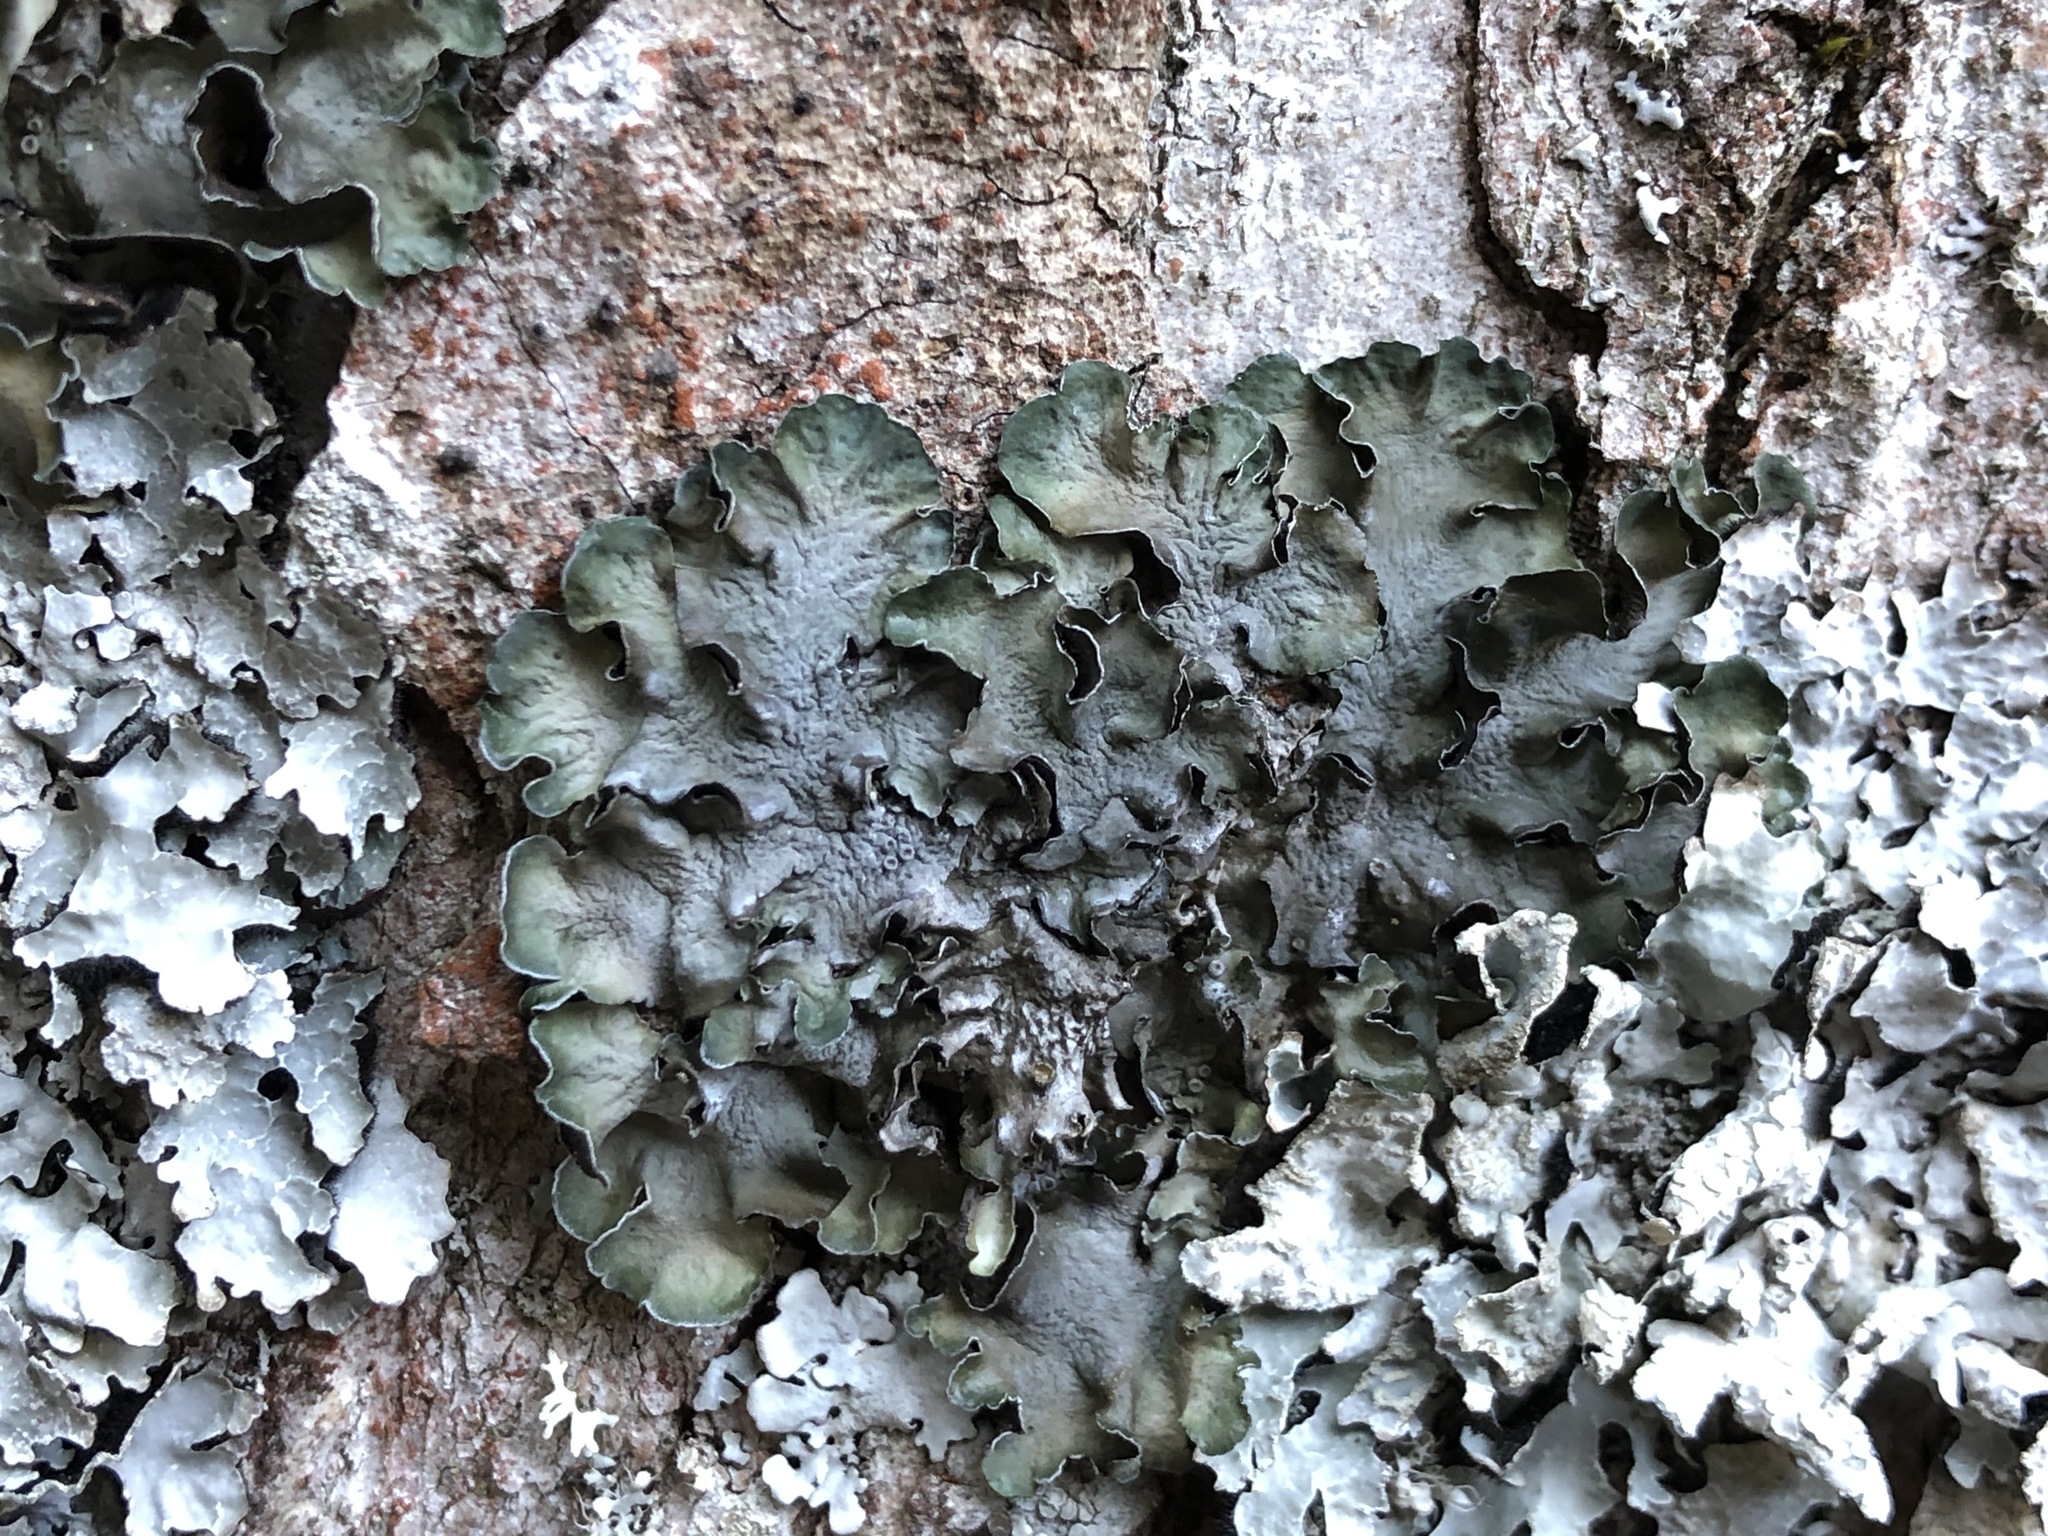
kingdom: Fungi
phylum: Ascomycota
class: Lecanoromycetes
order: Lecanorales
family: Parmeliaceae
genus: Pleurosticta
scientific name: Pleurosticta acetabulum
